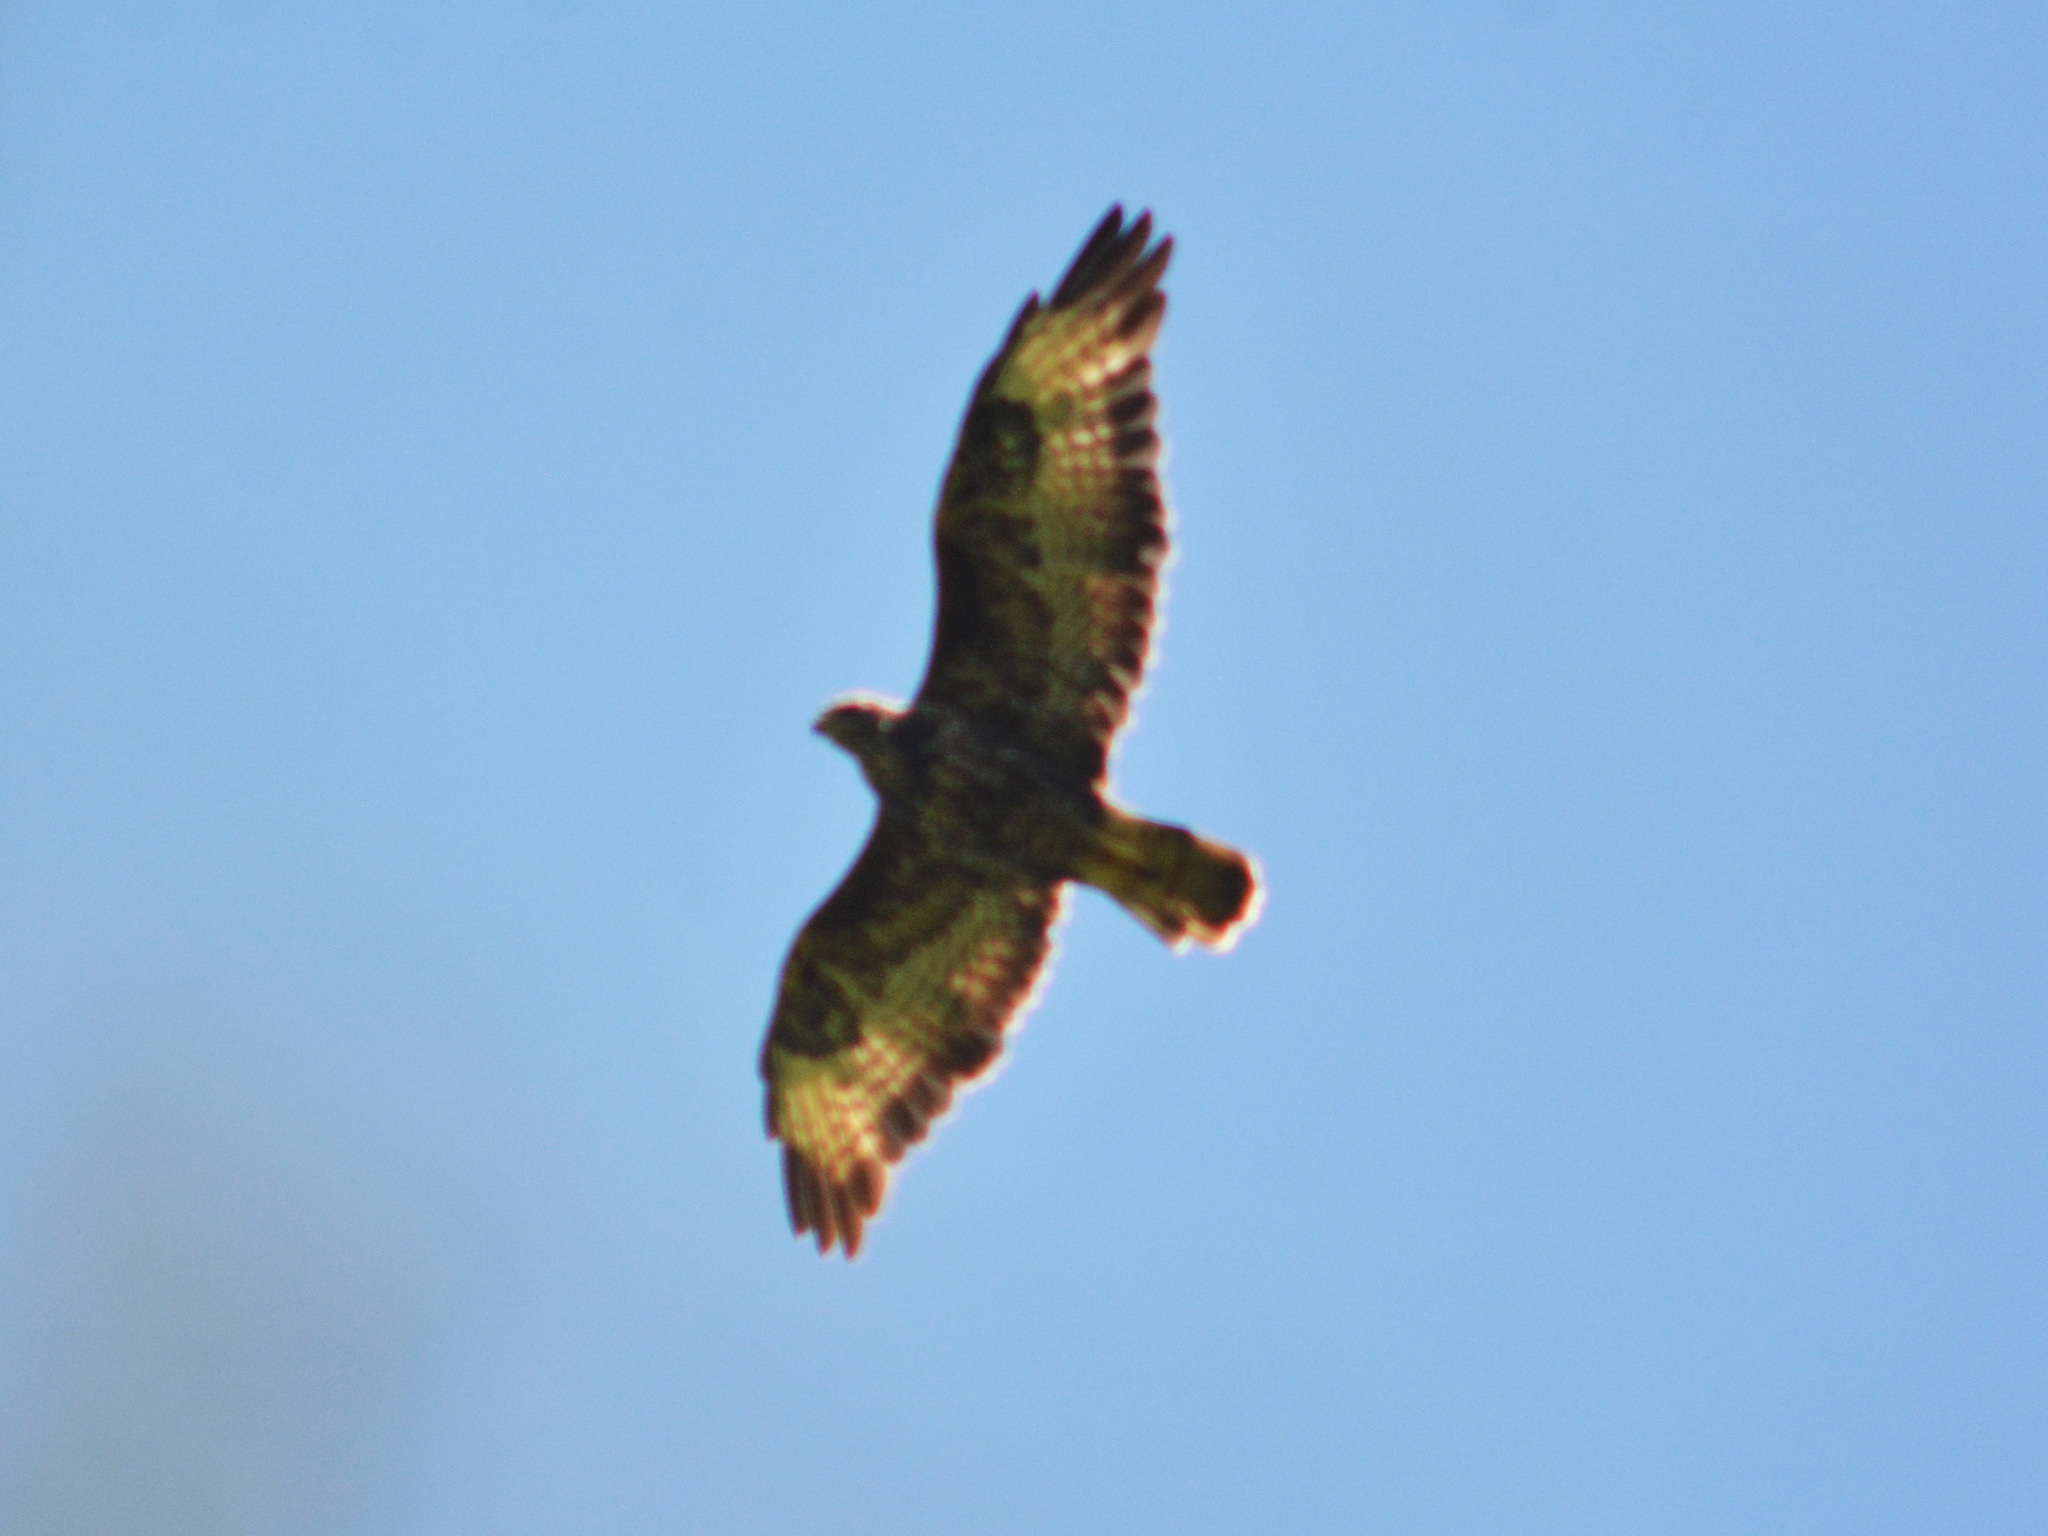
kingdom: Animalia
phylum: Chordata
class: Aves
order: Accipitriformes
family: Accipitridae
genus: Buteo
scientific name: Buteo buteo
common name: Common buzzard
